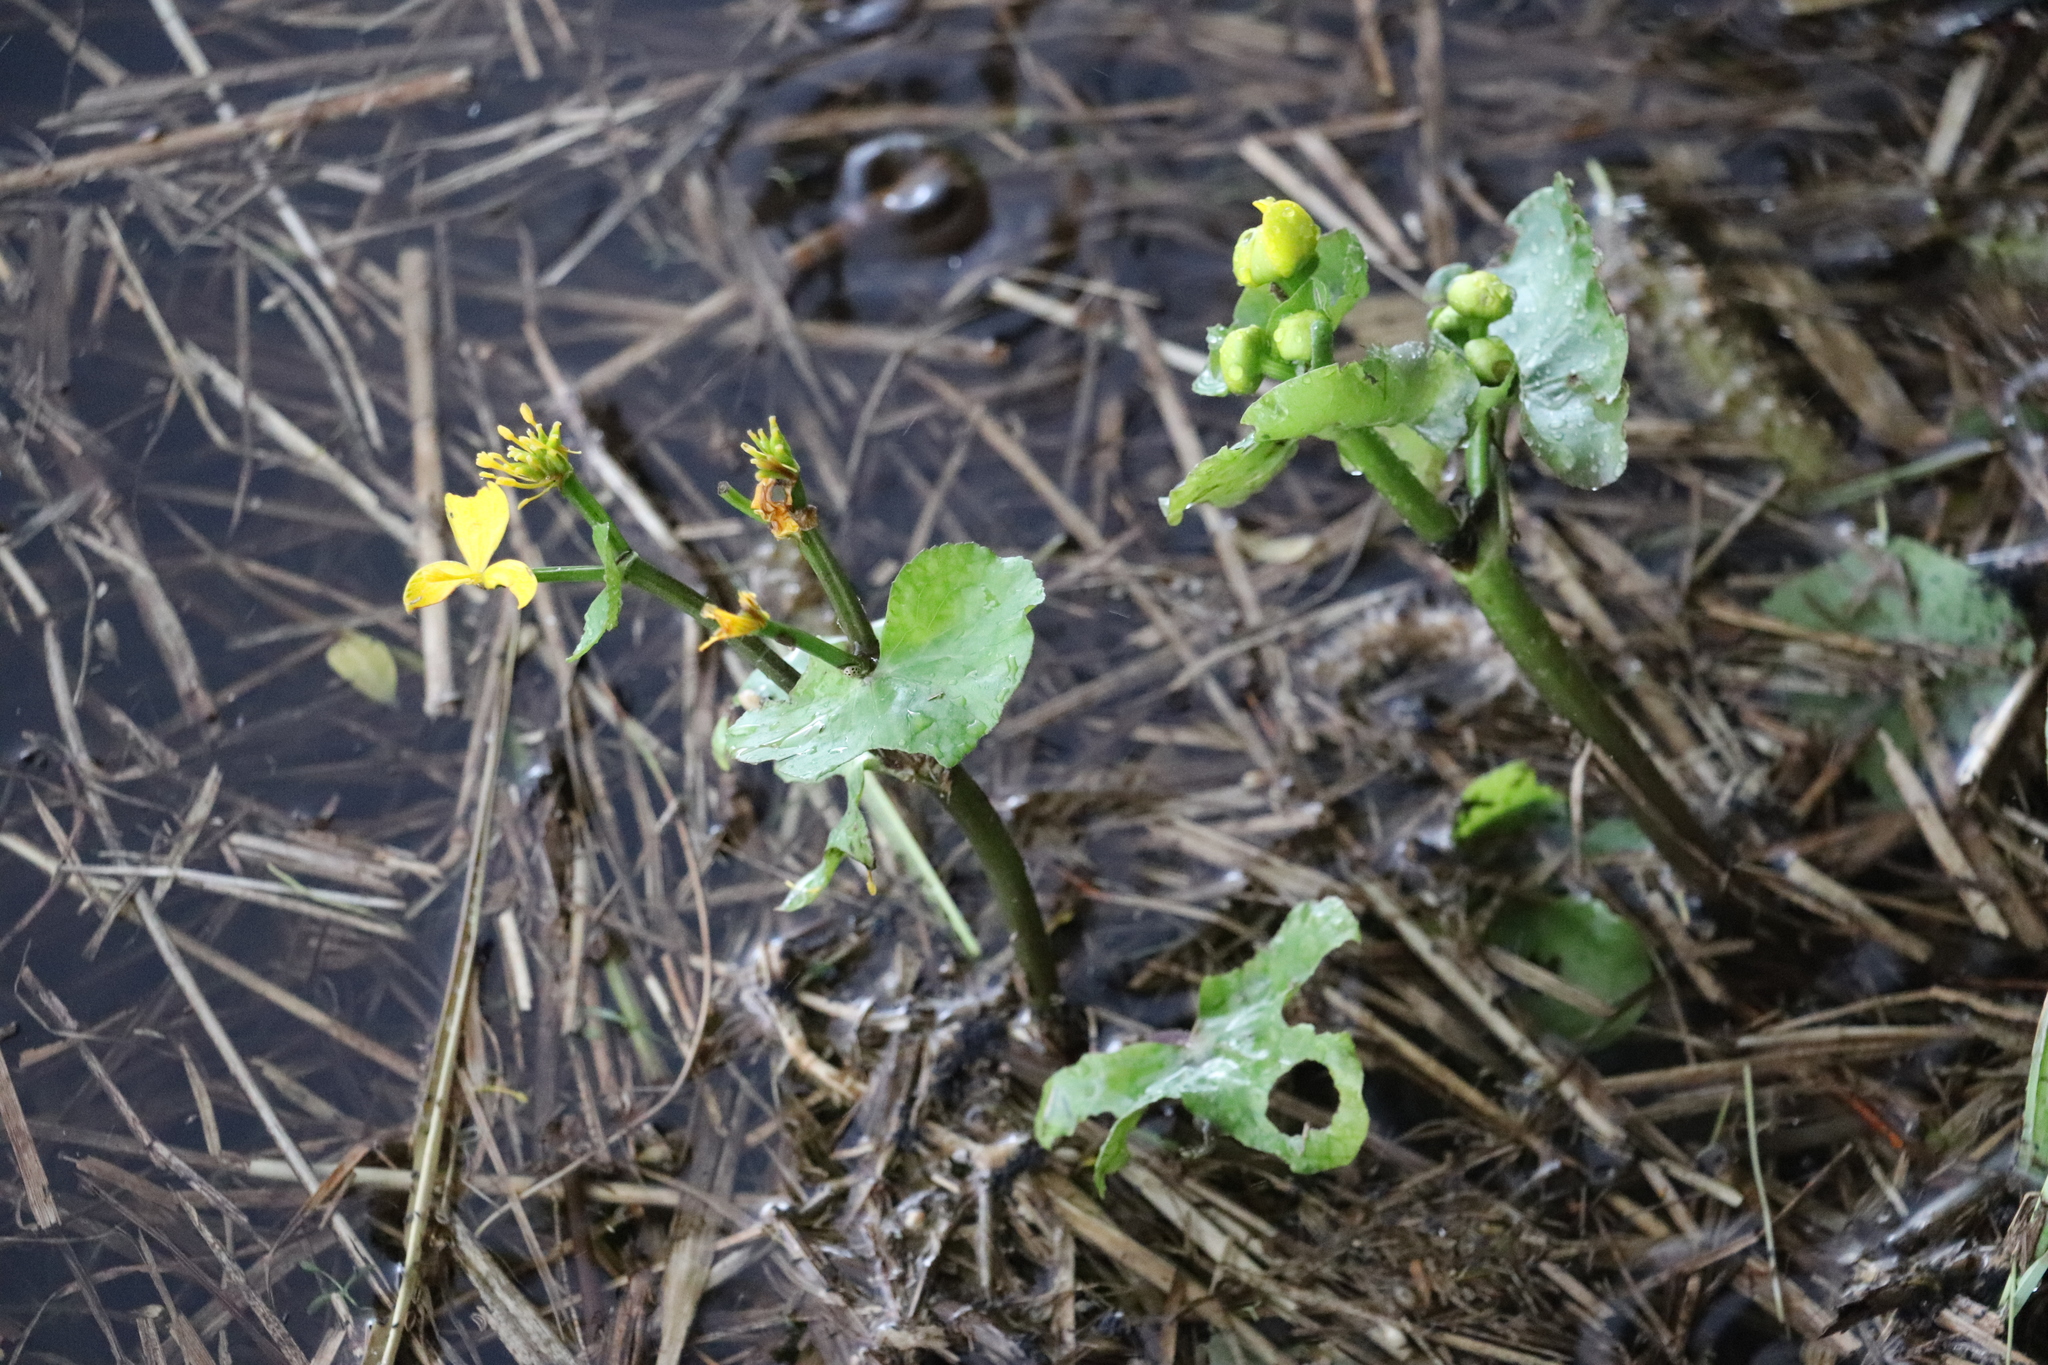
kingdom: Plantae
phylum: Tracheophyta
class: Magnoliopsida
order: Ranunculales
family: Ranunculaceae
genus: Caltha
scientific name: Caltha palustris
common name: Marsh marigold
